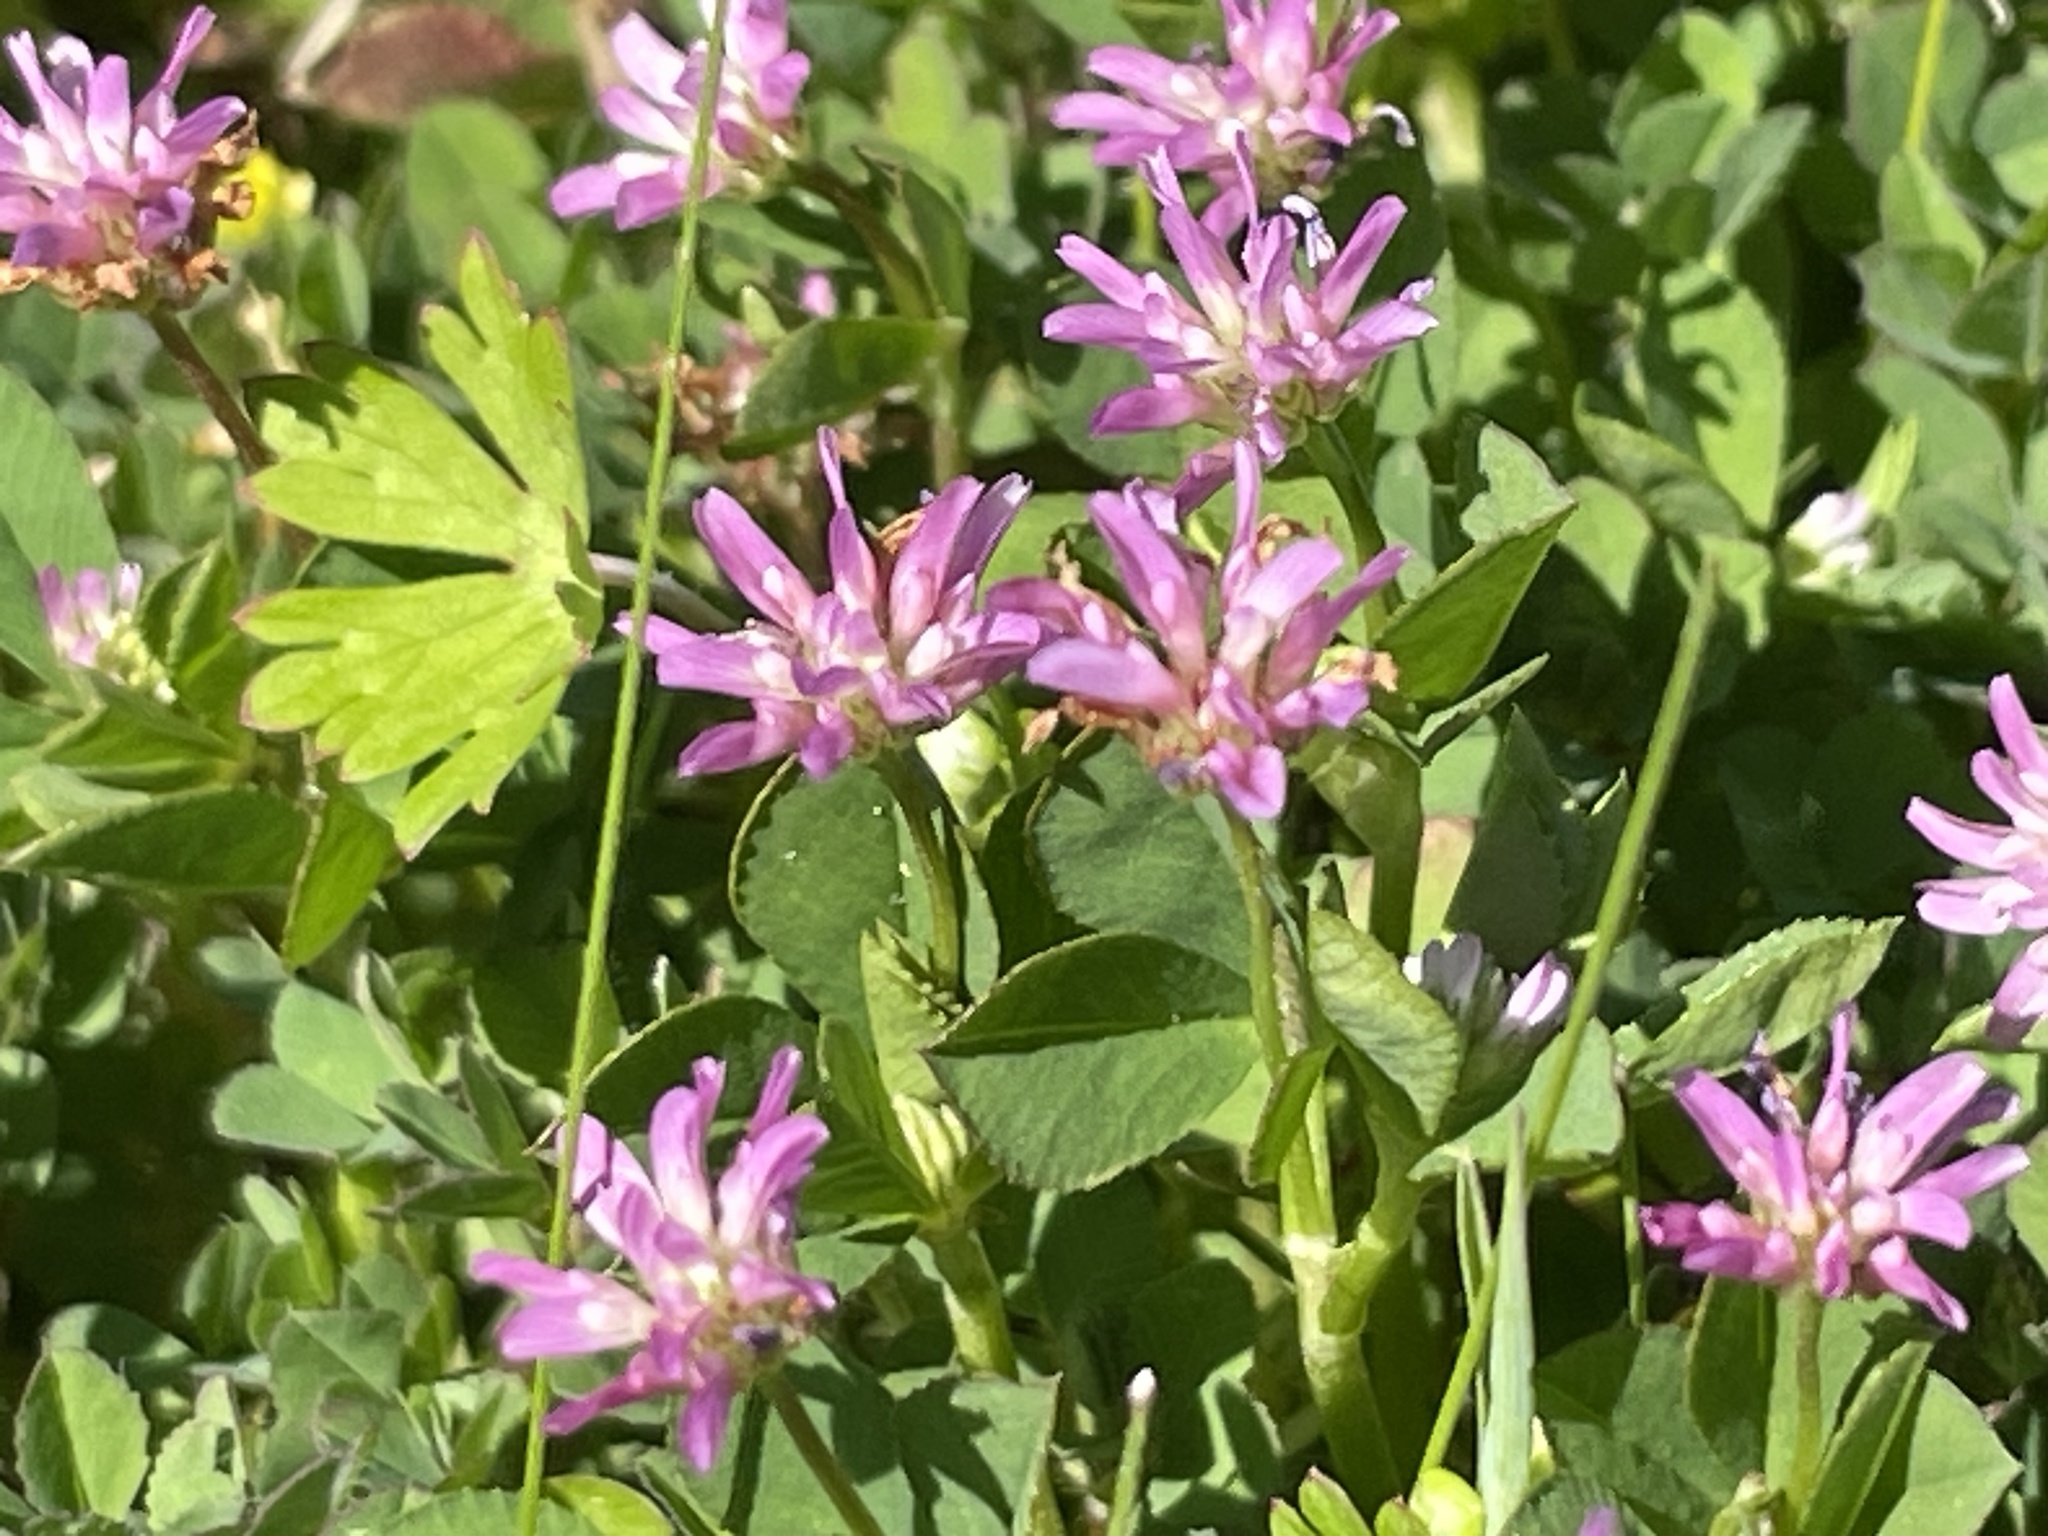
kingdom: Plantae
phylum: Tracheophyta
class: Magnoliopsida
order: Fabales
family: Fabaceae
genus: Trifolium
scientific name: Trifolium resupinatum
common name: Reversed clover
